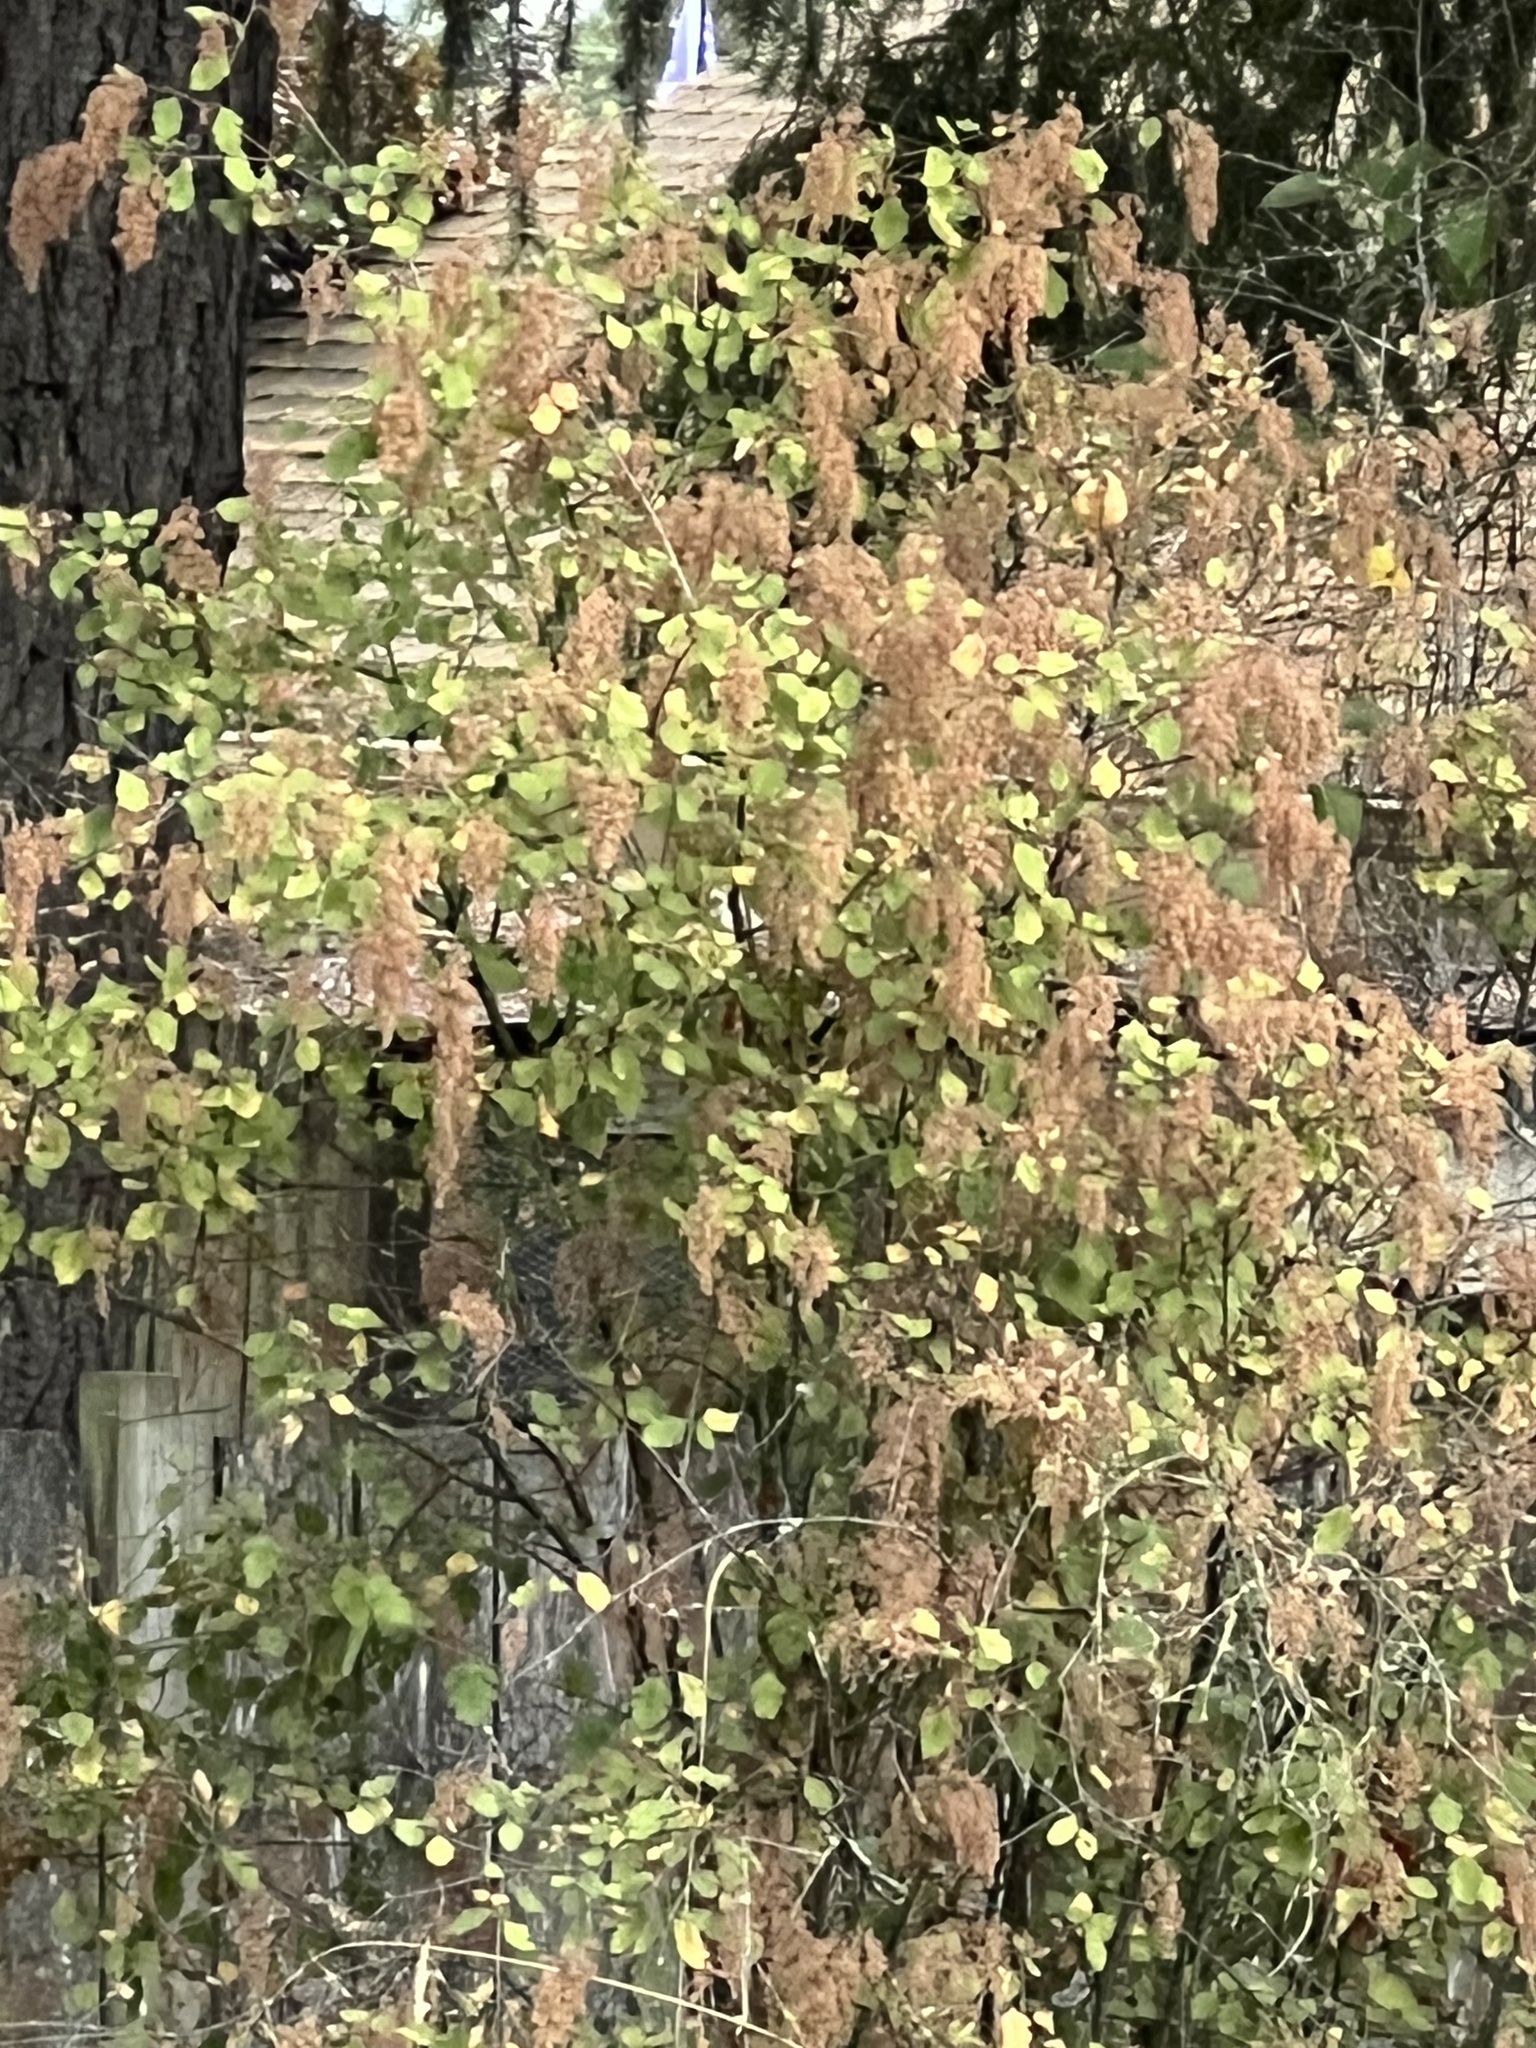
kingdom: Plantae
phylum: Tracheophyta
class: Magnoliopsida
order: Rosales
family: Rosaceae
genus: Holodiscus
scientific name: Holodiscus discolor
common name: Oceanspray
